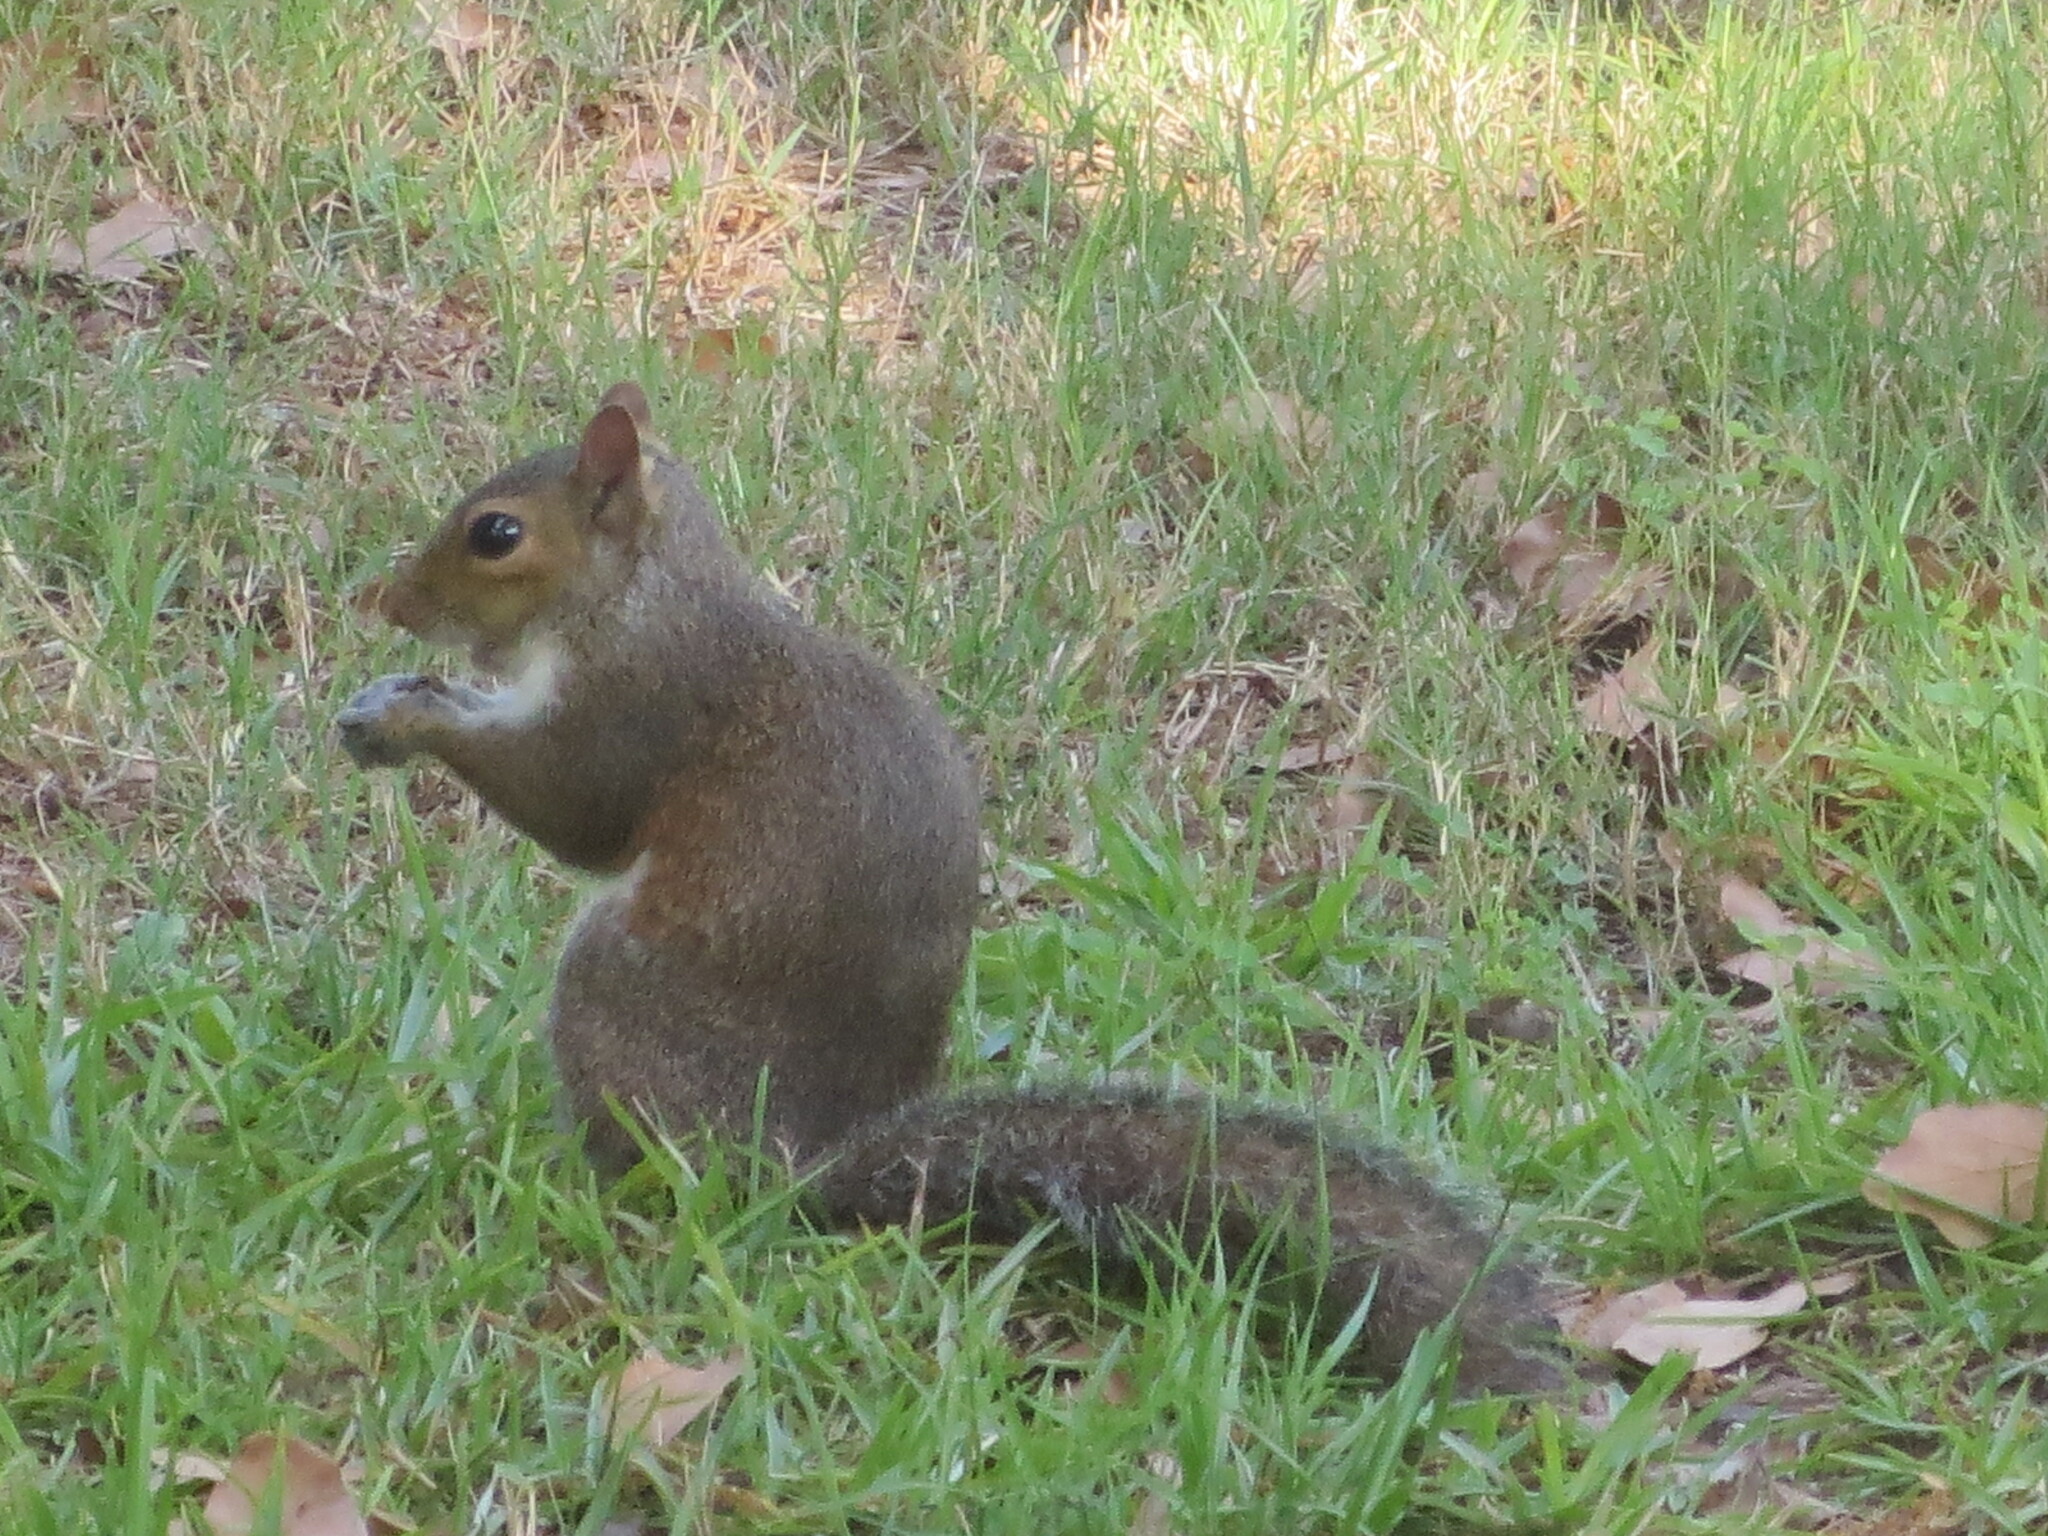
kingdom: Animalia
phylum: Chordata
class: Mammalia
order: Rodentia
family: Sciuridae
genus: Sciurus
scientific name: Sciurus carolinensis
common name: Eastern gray squirrel
